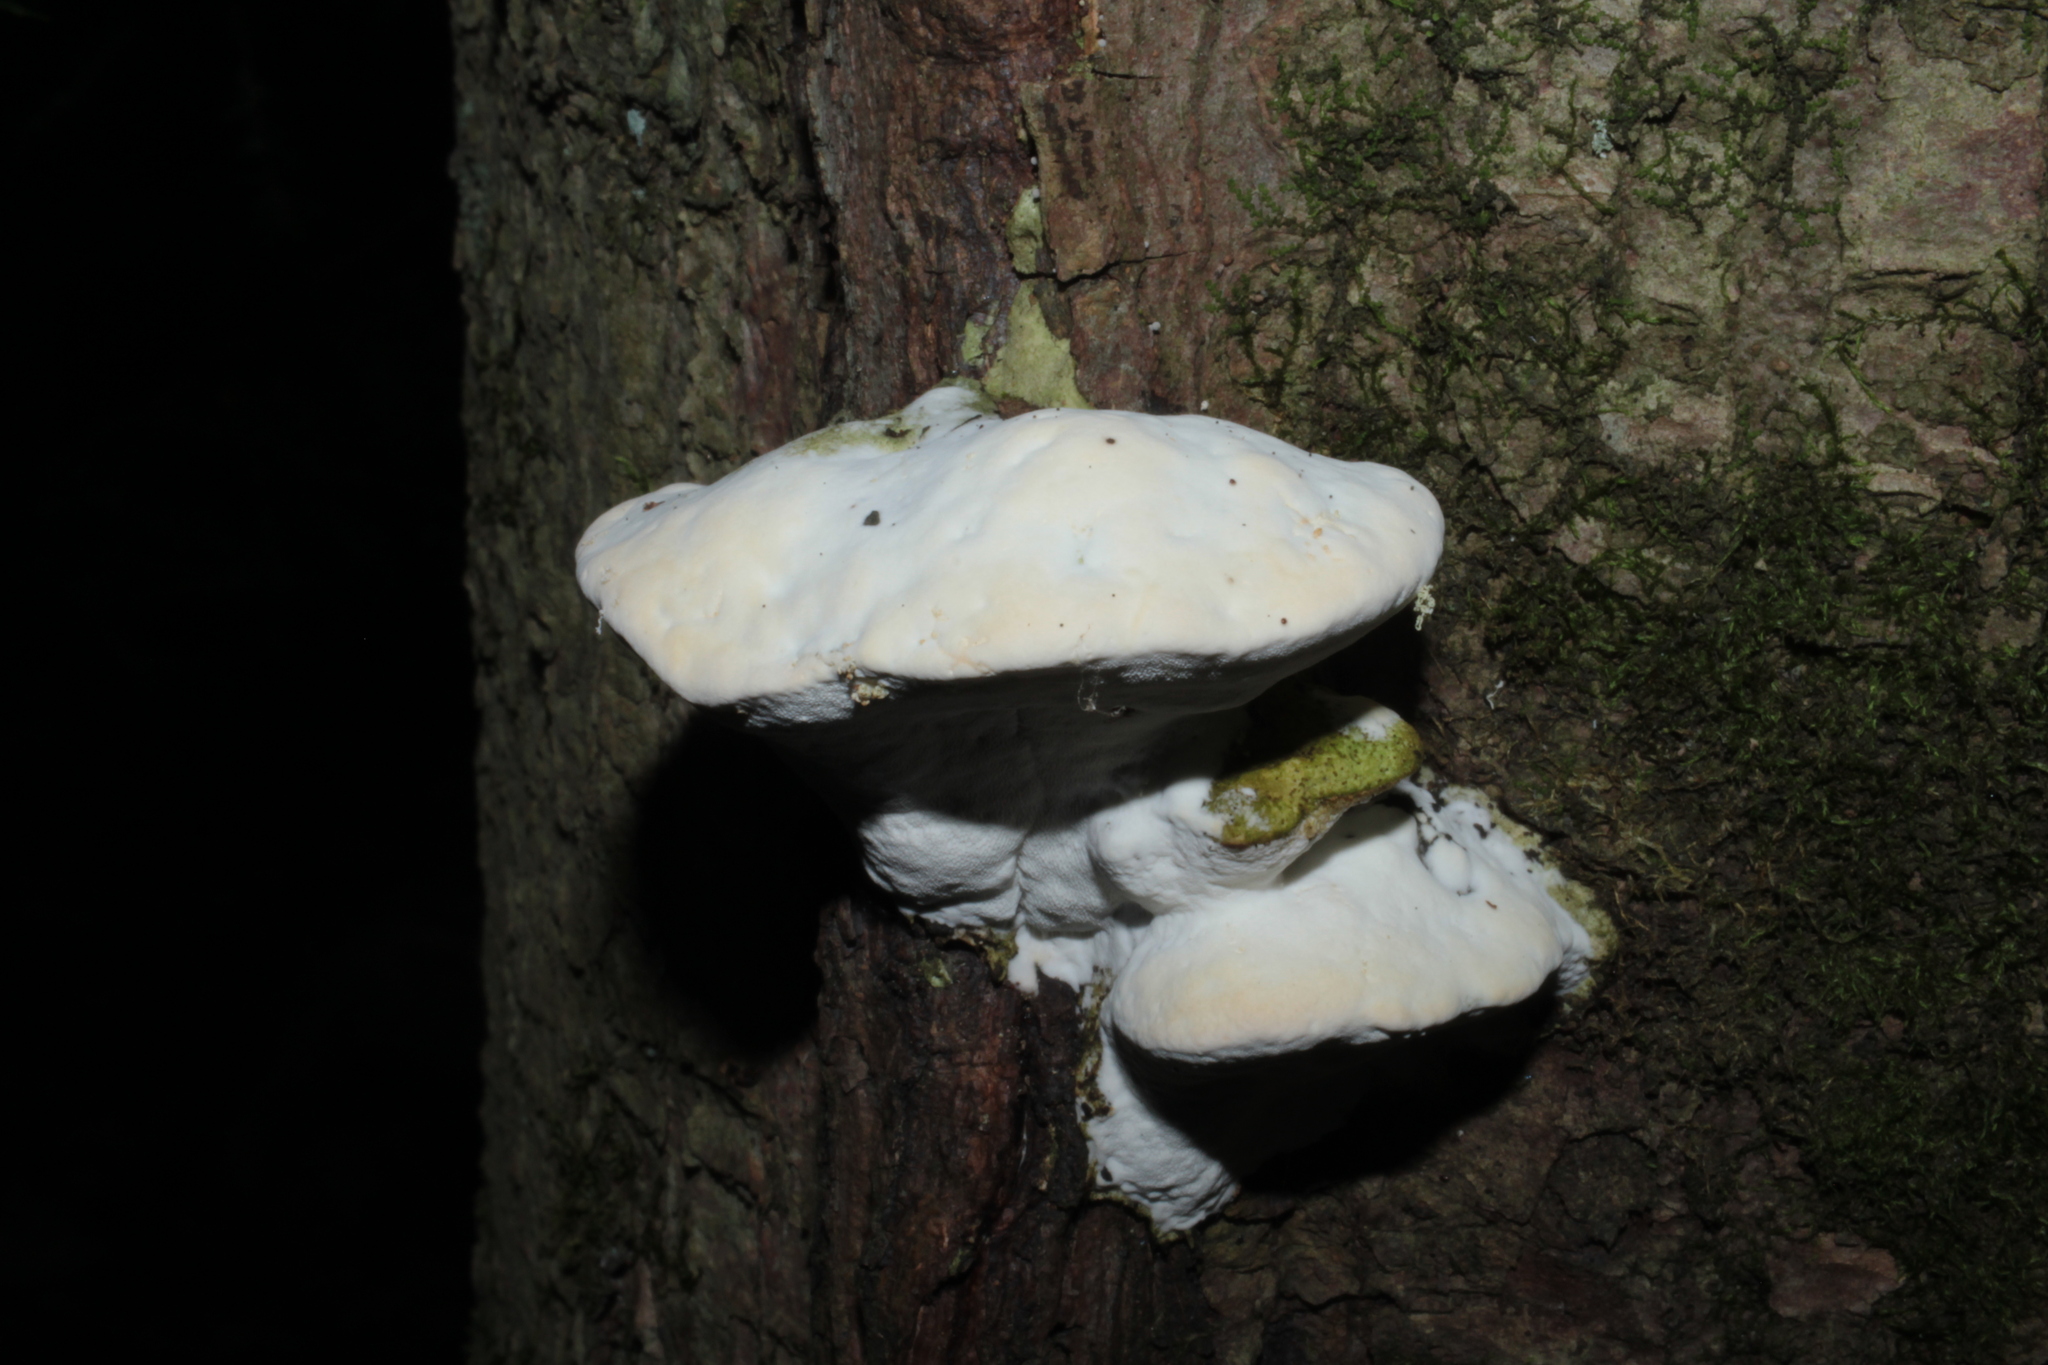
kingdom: Fungi
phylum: Basidiomycota
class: Agaricomycetes
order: Hymenochaetales
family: Oxyporaceae
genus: Oxyporus
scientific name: Oxyporus populinus
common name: Poplar bracket
